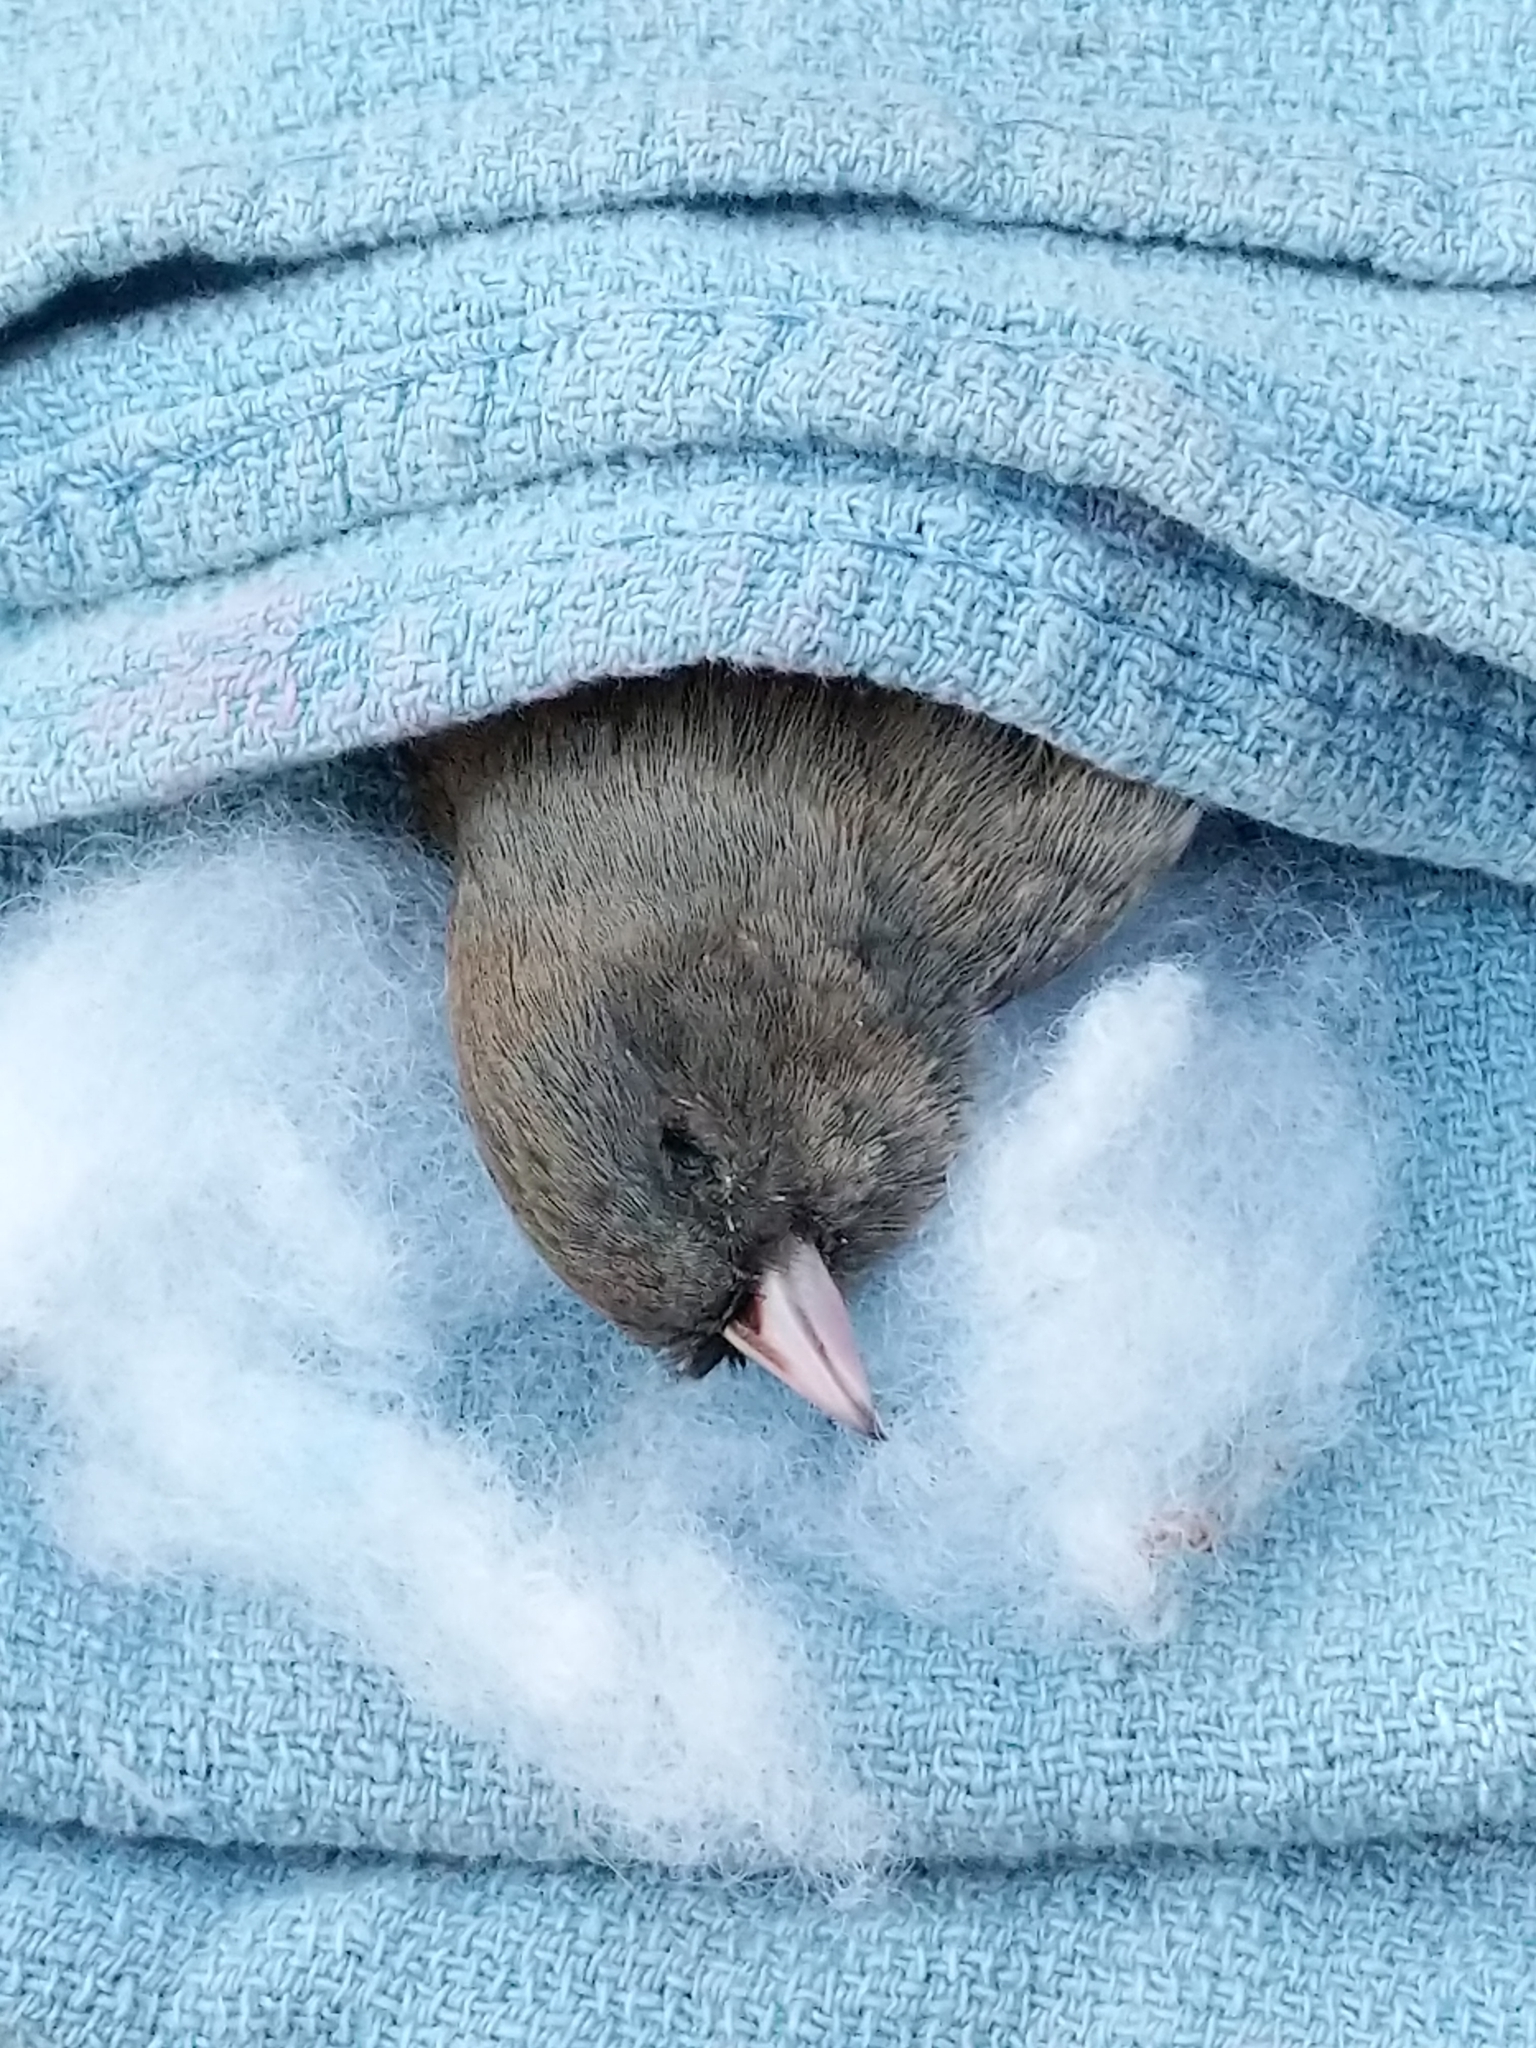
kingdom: Animalia
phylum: Chordata
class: Aves
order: Passeriformes
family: Passerellidae
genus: Junco
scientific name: Junco hyemalis
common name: Dark-eyed junco
